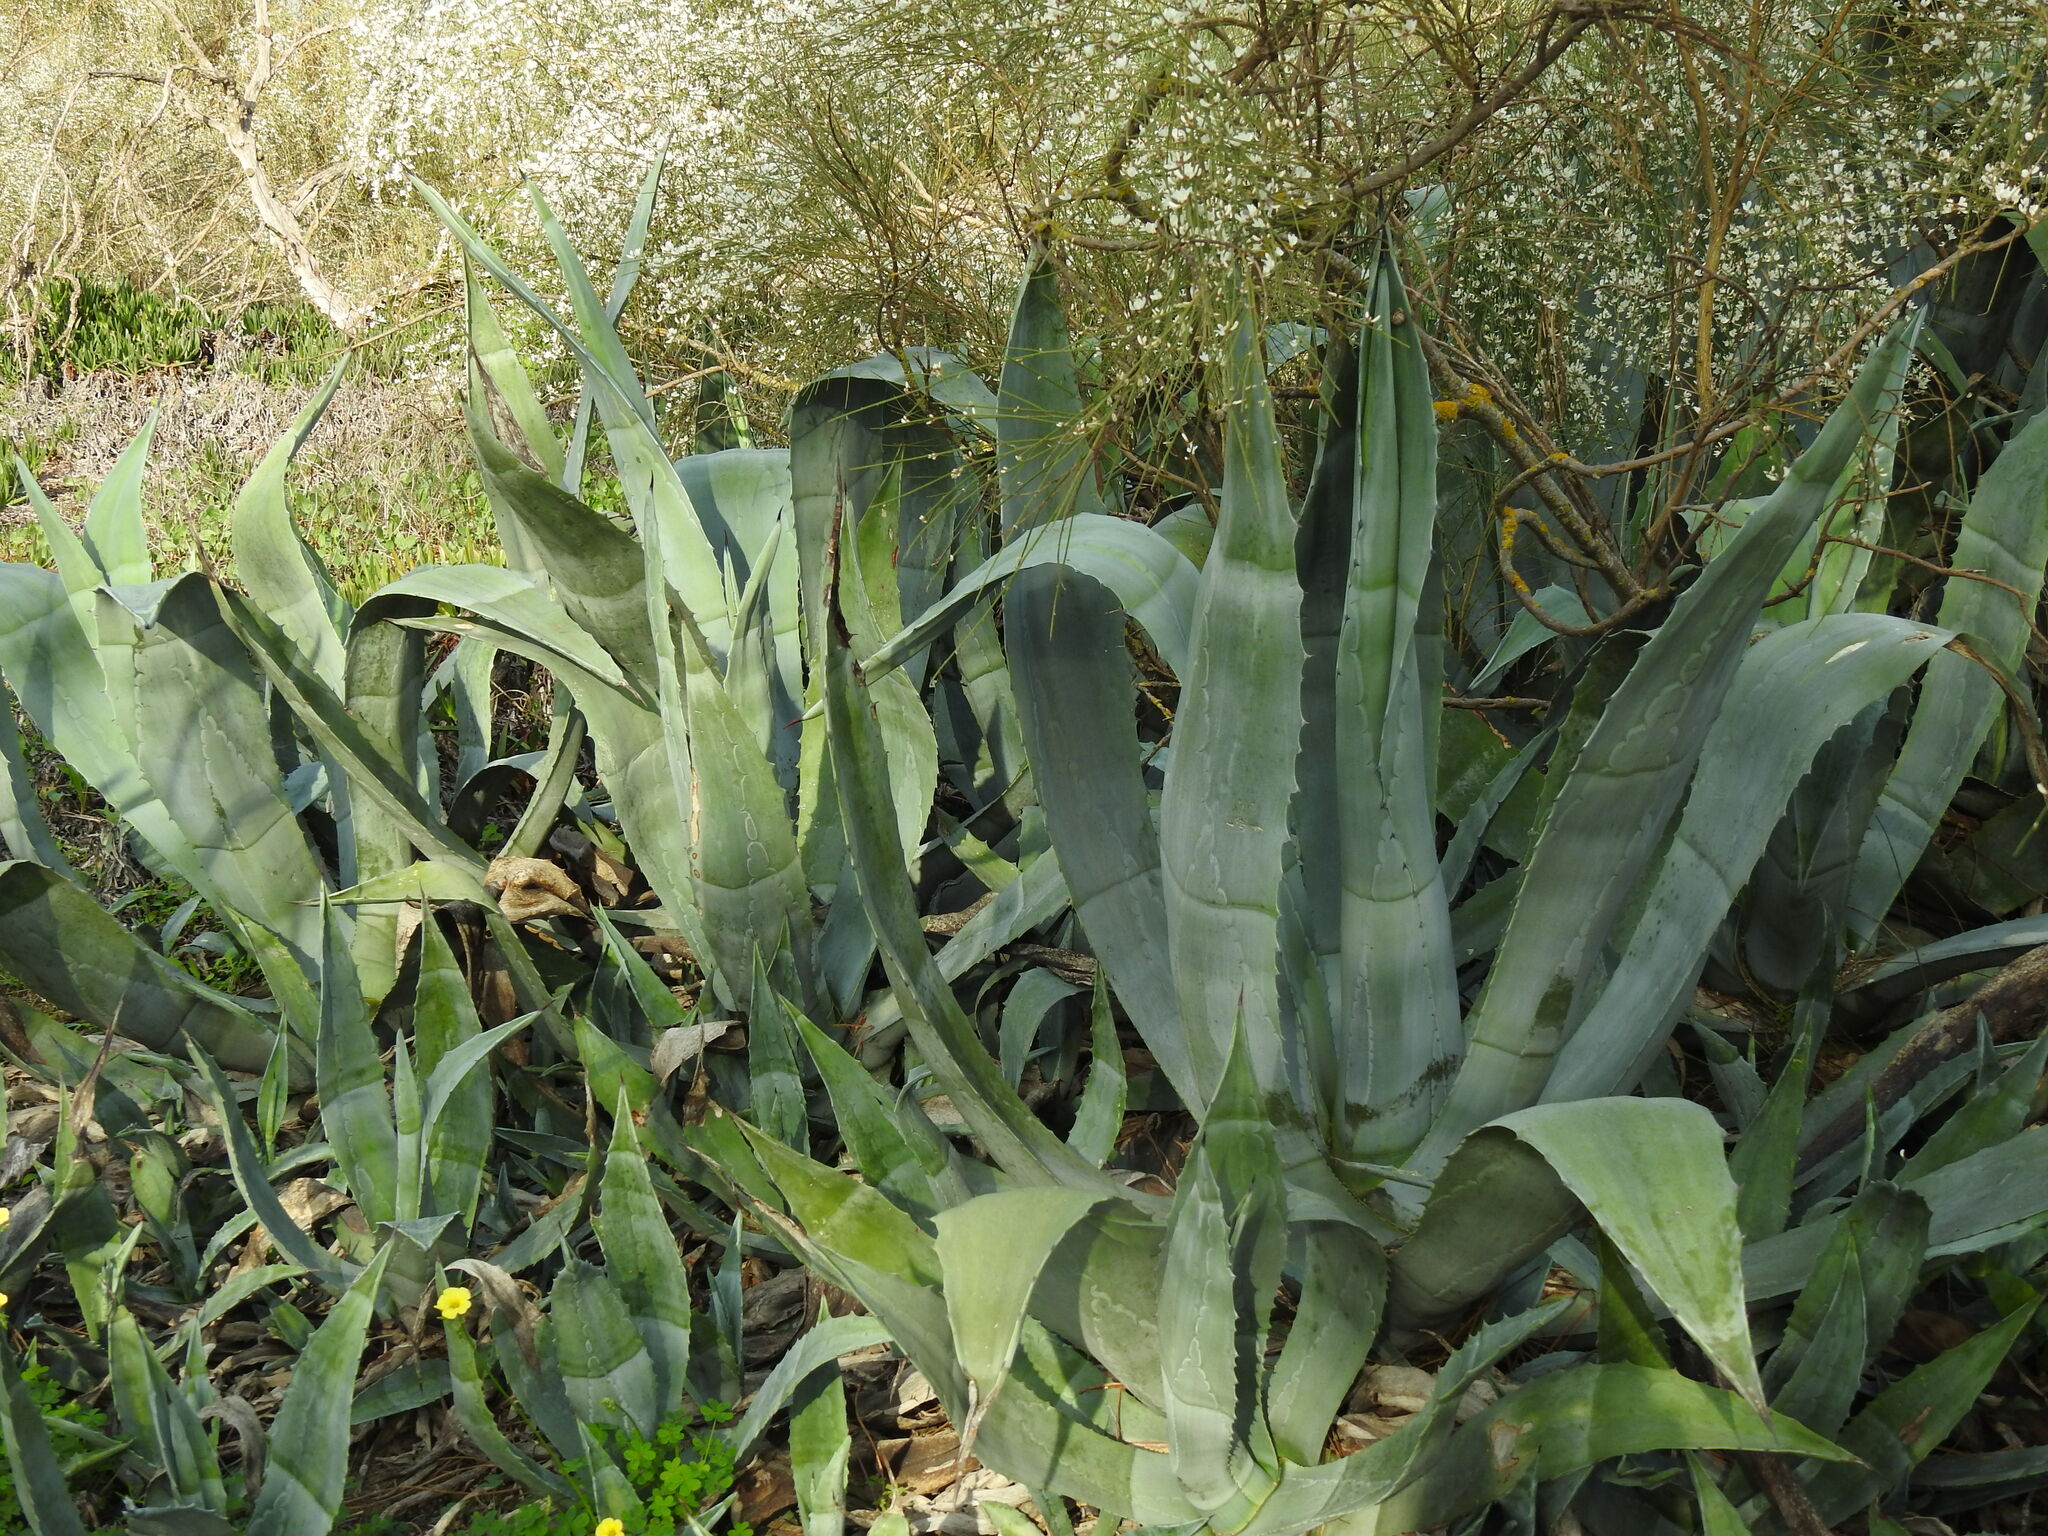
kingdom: Plantae
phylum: Tracheophyta
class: Liliopsida
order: Asparagales
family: Asparagaceae
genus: Agave
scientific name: Agave americana
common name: Centuryplant
